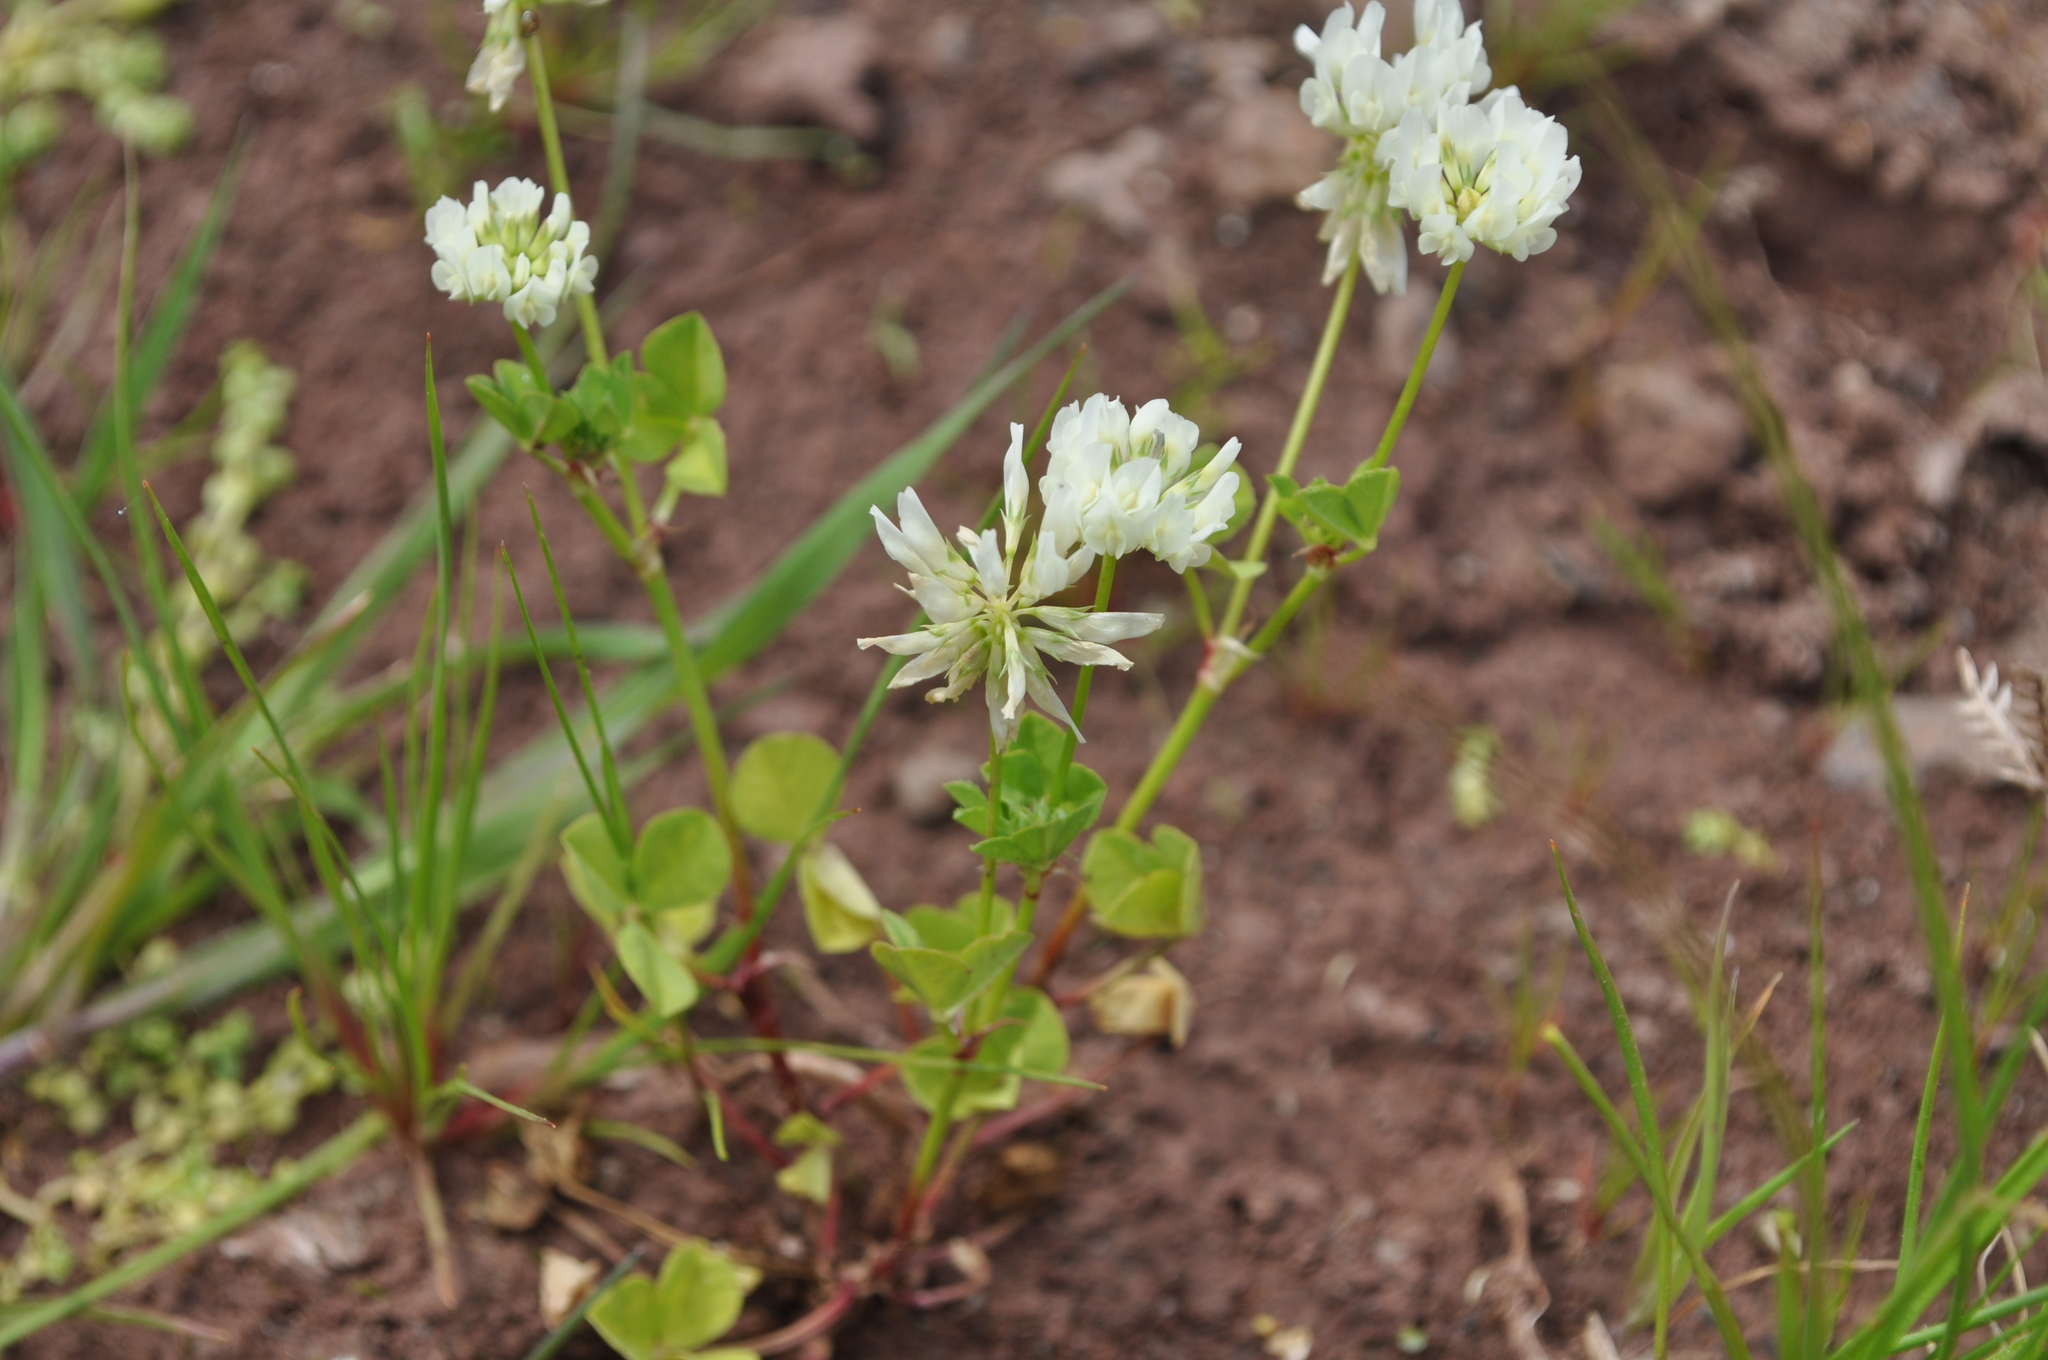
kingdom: Plantae
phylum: Tracheophyta
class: Magnoliopsida
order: Fabales
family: Fabaceae
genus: Trifolium
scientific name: Trifolium nigrescens
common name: Small white clover
